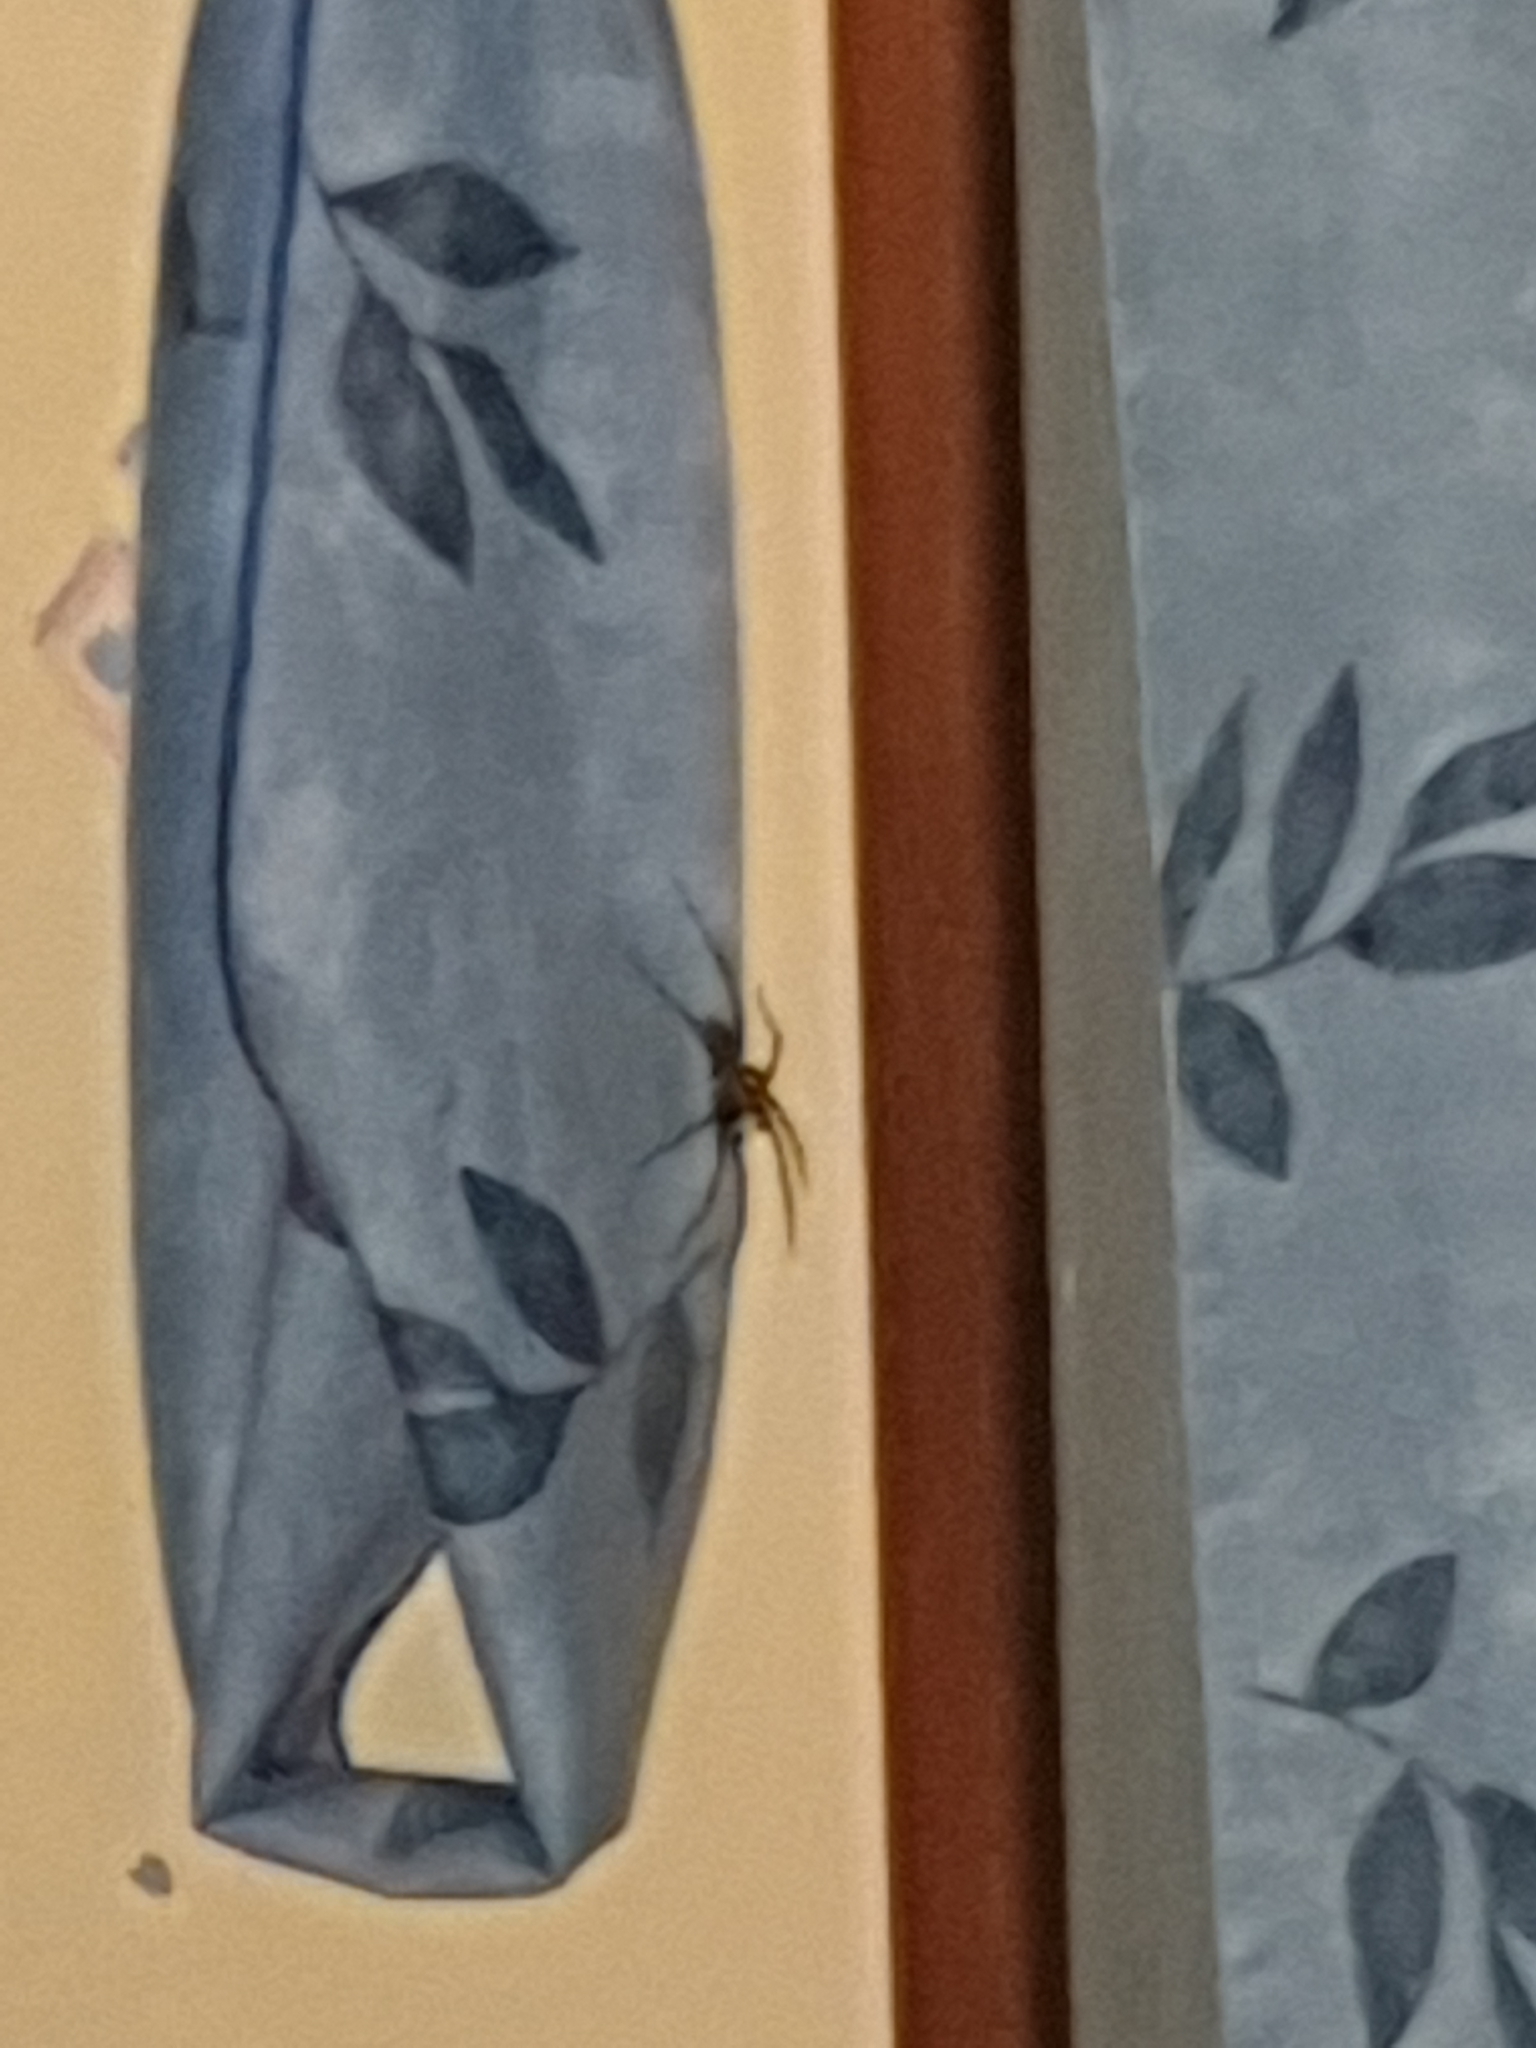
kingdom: Animalia
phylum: Arthropoda
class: Arachnida
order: Araneae
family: Agelenidae
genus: Eratigena
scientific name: Eratigena
